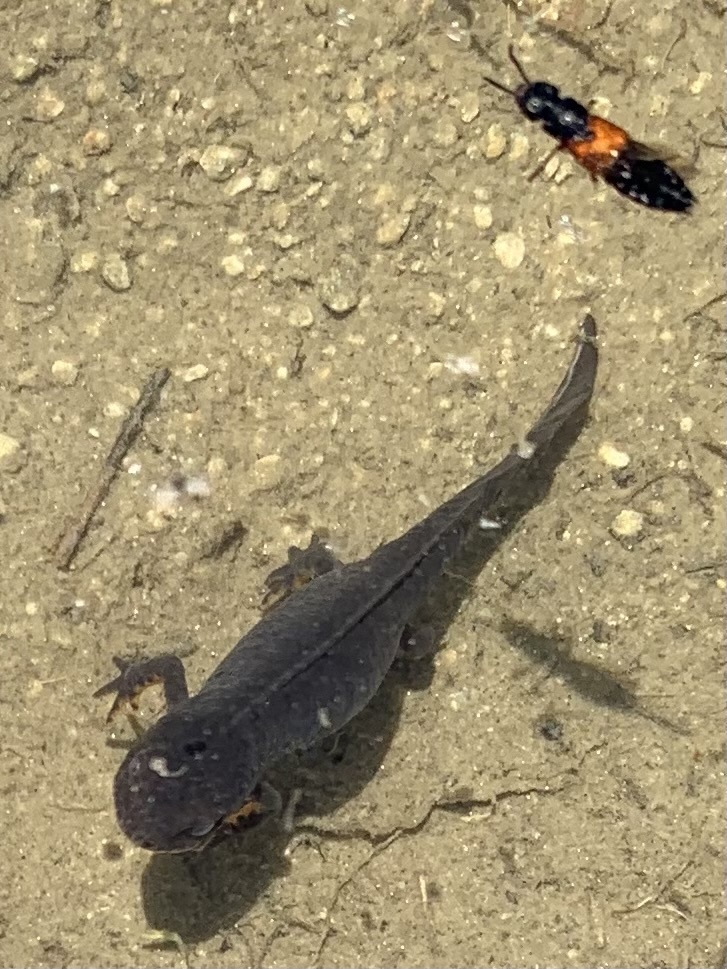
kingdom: Animalia
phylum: Chordata
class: Amphibia
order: Caudata
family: Salamandridae
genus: Ichthyosaura
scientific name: Ichthyosaura alpestris
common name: Alpine newt
